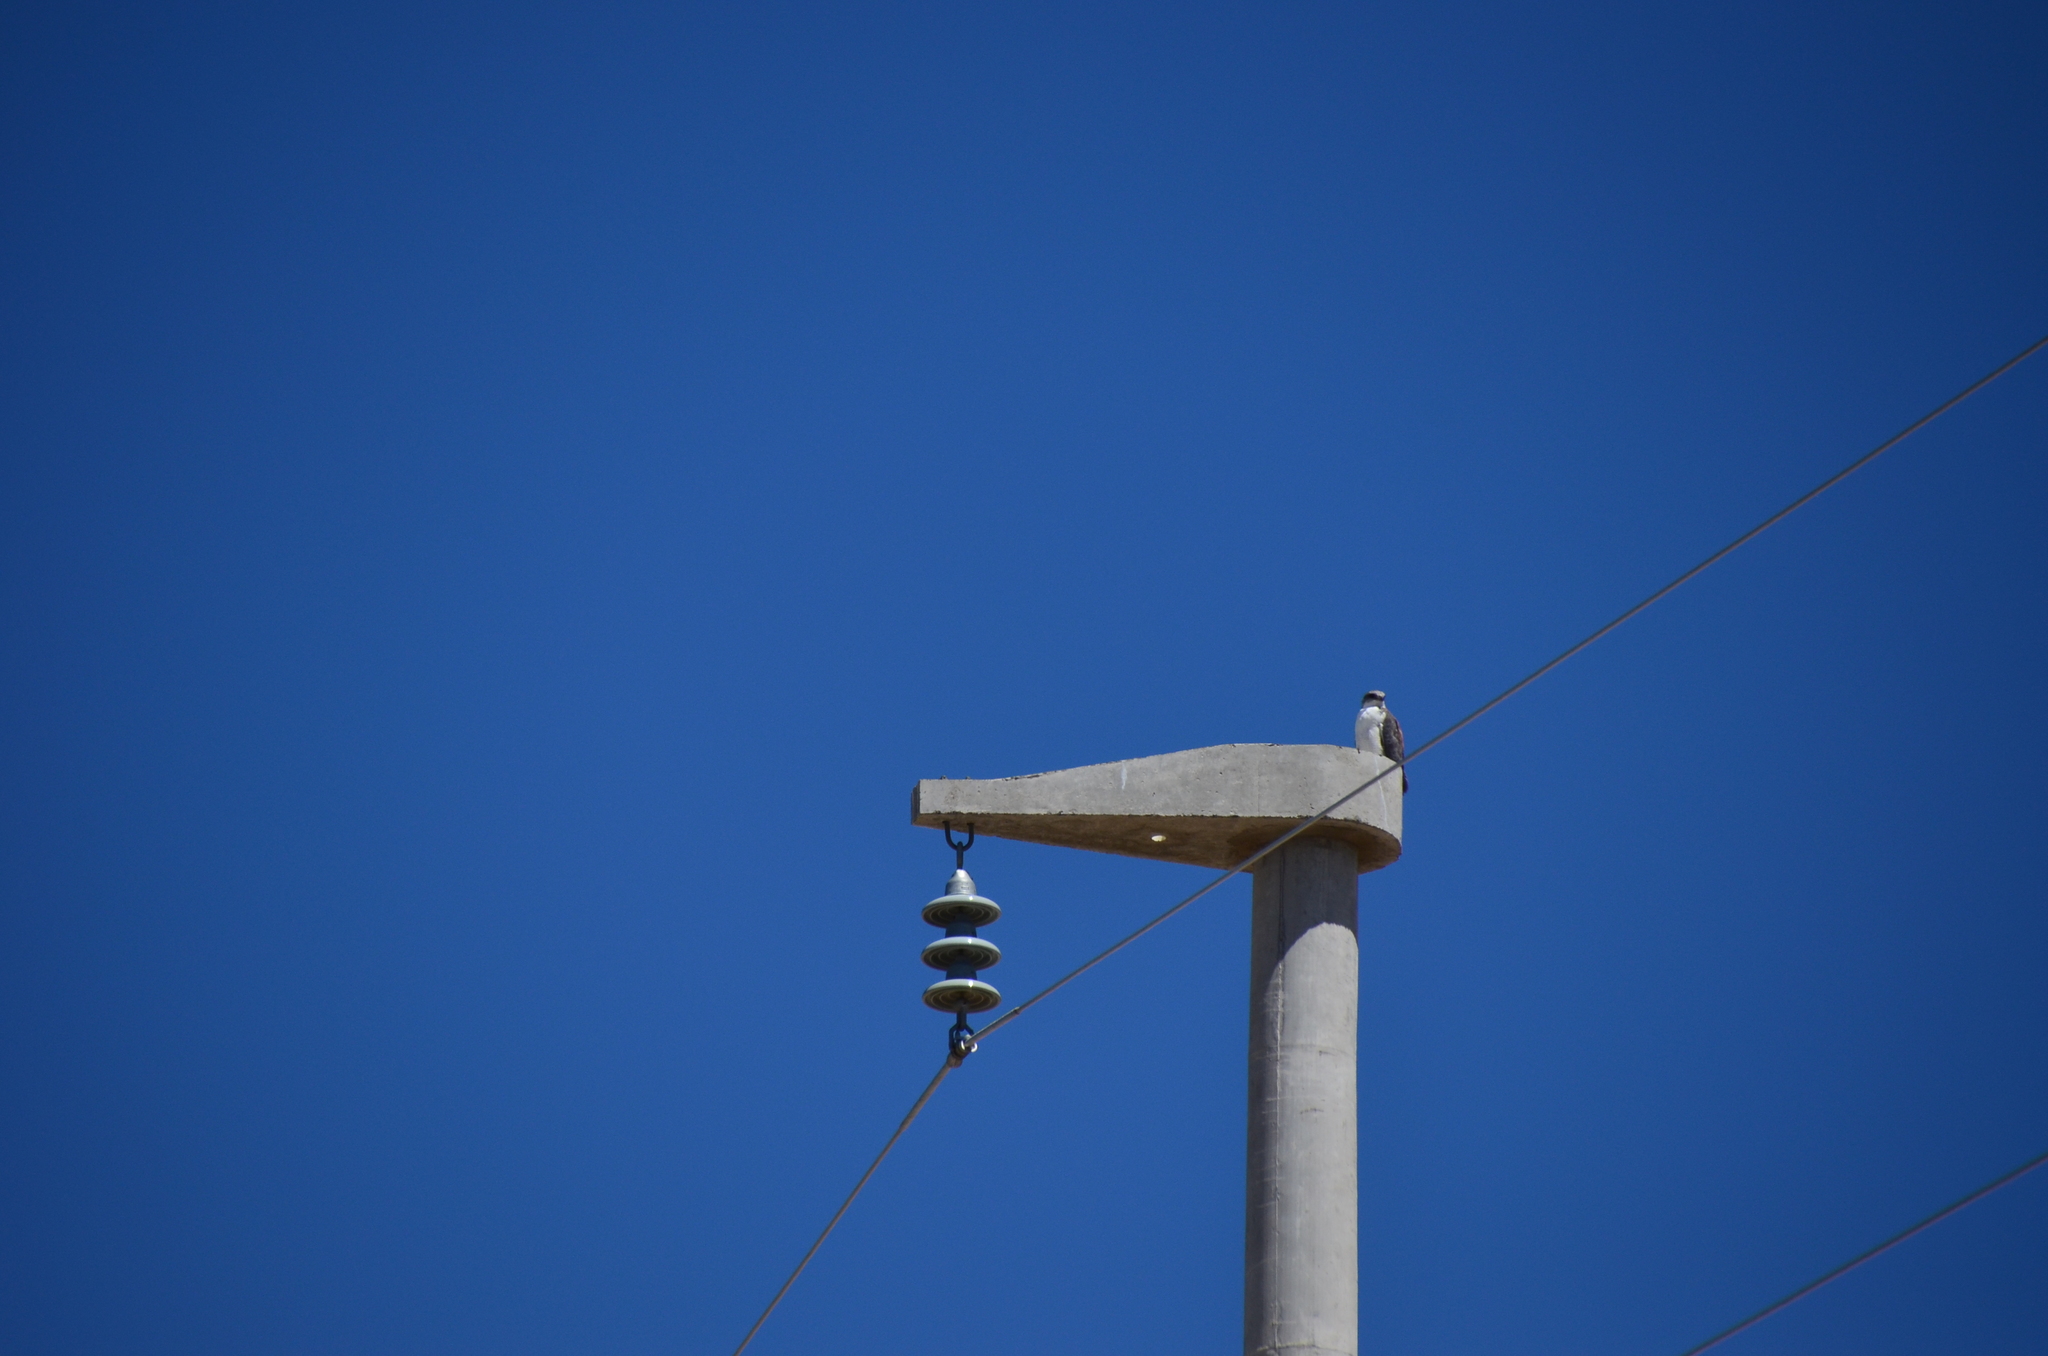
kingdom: Animalia
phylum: Chordata
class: Aves
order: Accipitriformes
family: Accipitridae
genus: Buteo
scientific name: Buteo polyosoma
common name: Variable hawk
